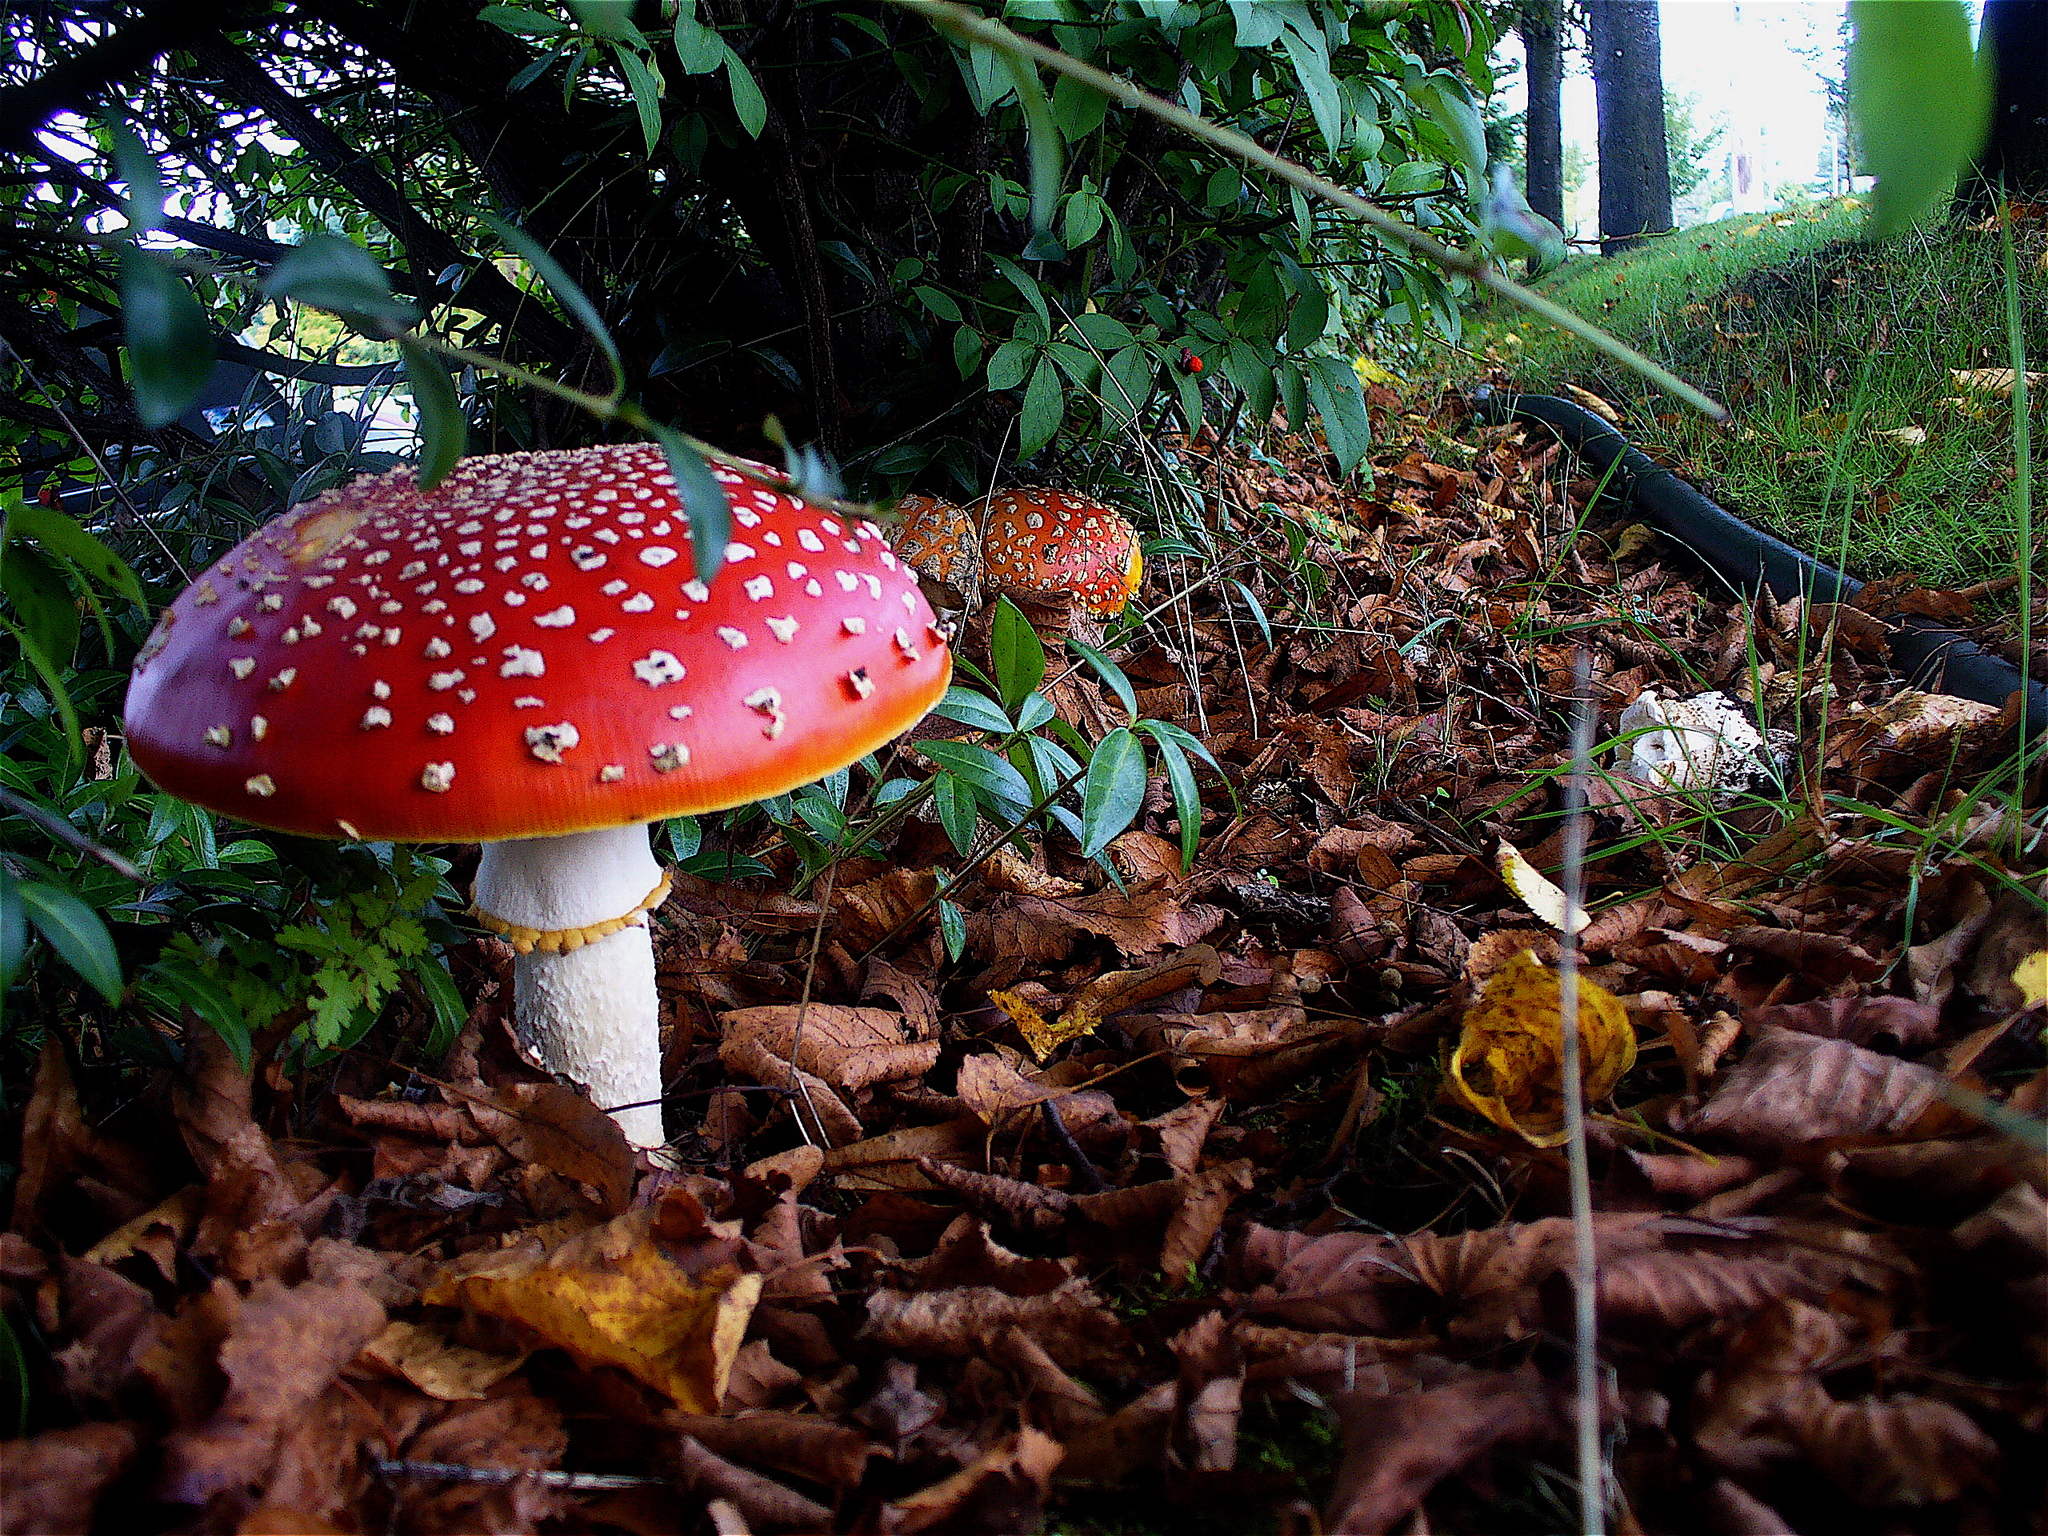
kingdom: Fungi
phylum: Basidiomycota
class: Agaricomycetes
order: Agaricales
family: Amanitaceae
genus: Amanita
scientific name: Amanita muscaria
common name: Fly agaric
